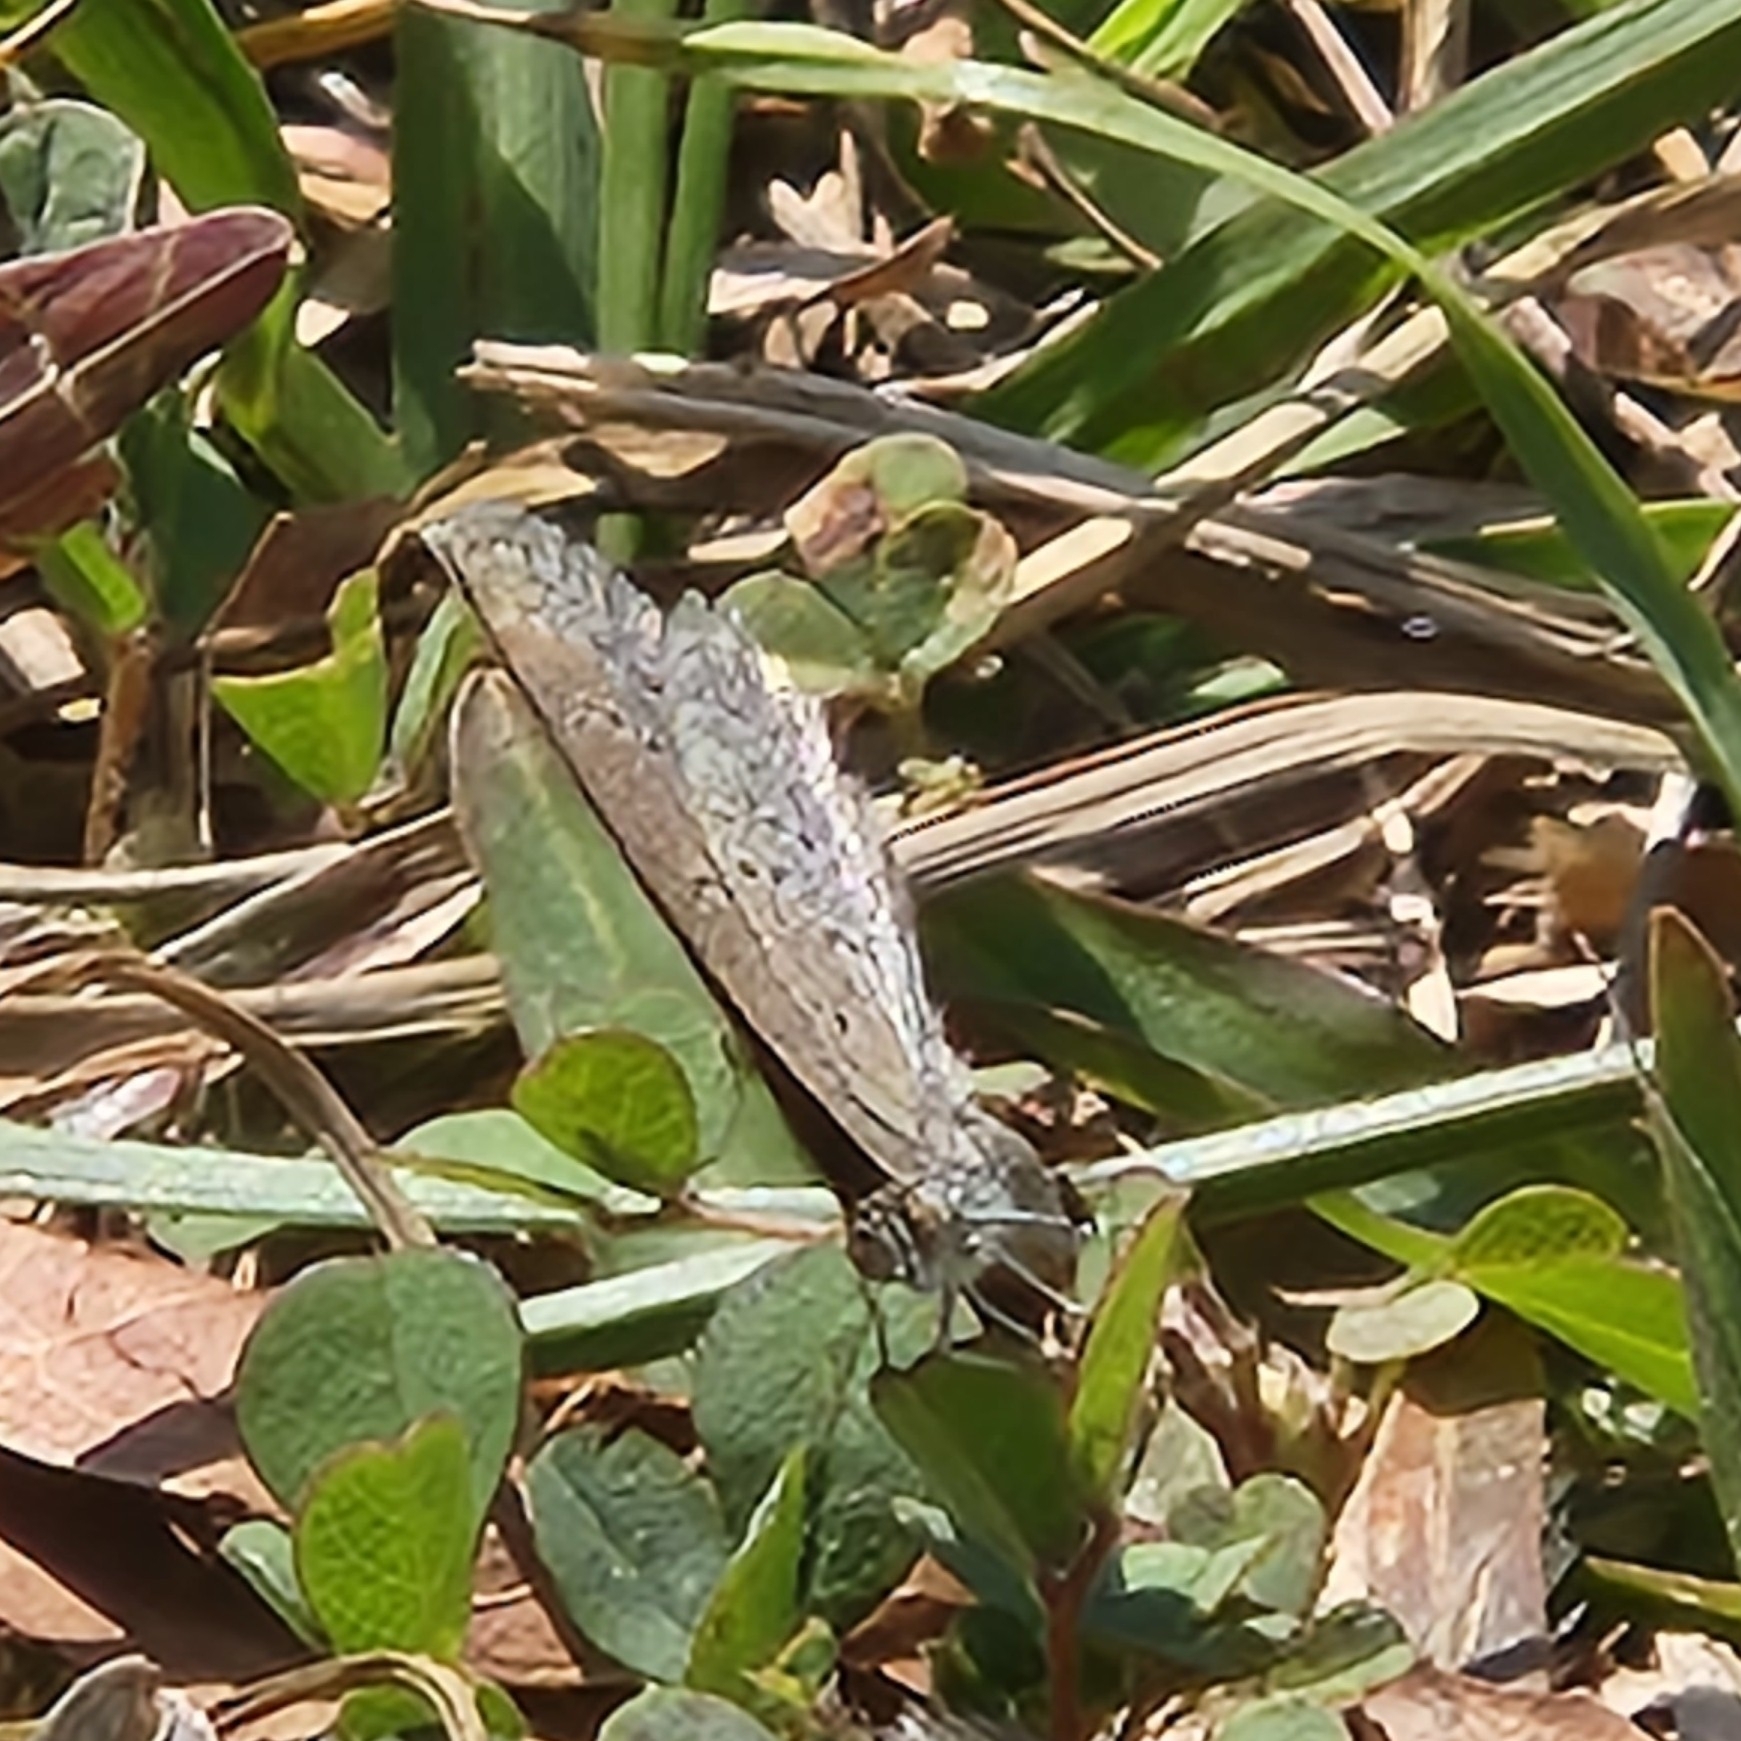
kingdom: Animalia
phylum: Arthropoda
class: Insecta
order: Lepidoptera
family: Lycaenidae
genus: Zizina
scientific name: Zizina otis
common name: Lesser grass blue
